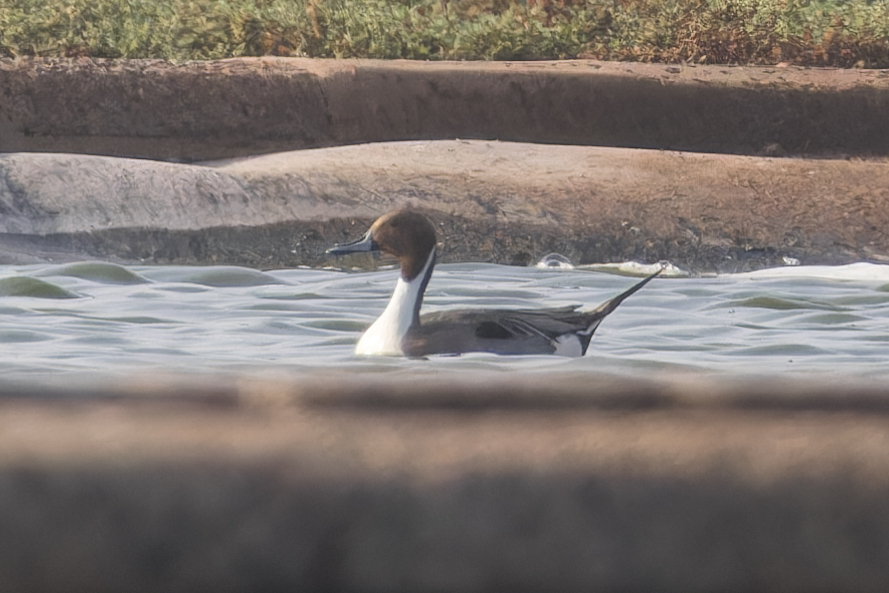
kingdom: Animalia
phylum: Chordata
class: Aves
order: Anseriformes
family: Anatidae
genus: Anas
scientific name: Anas acuta
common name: Northern pintail
